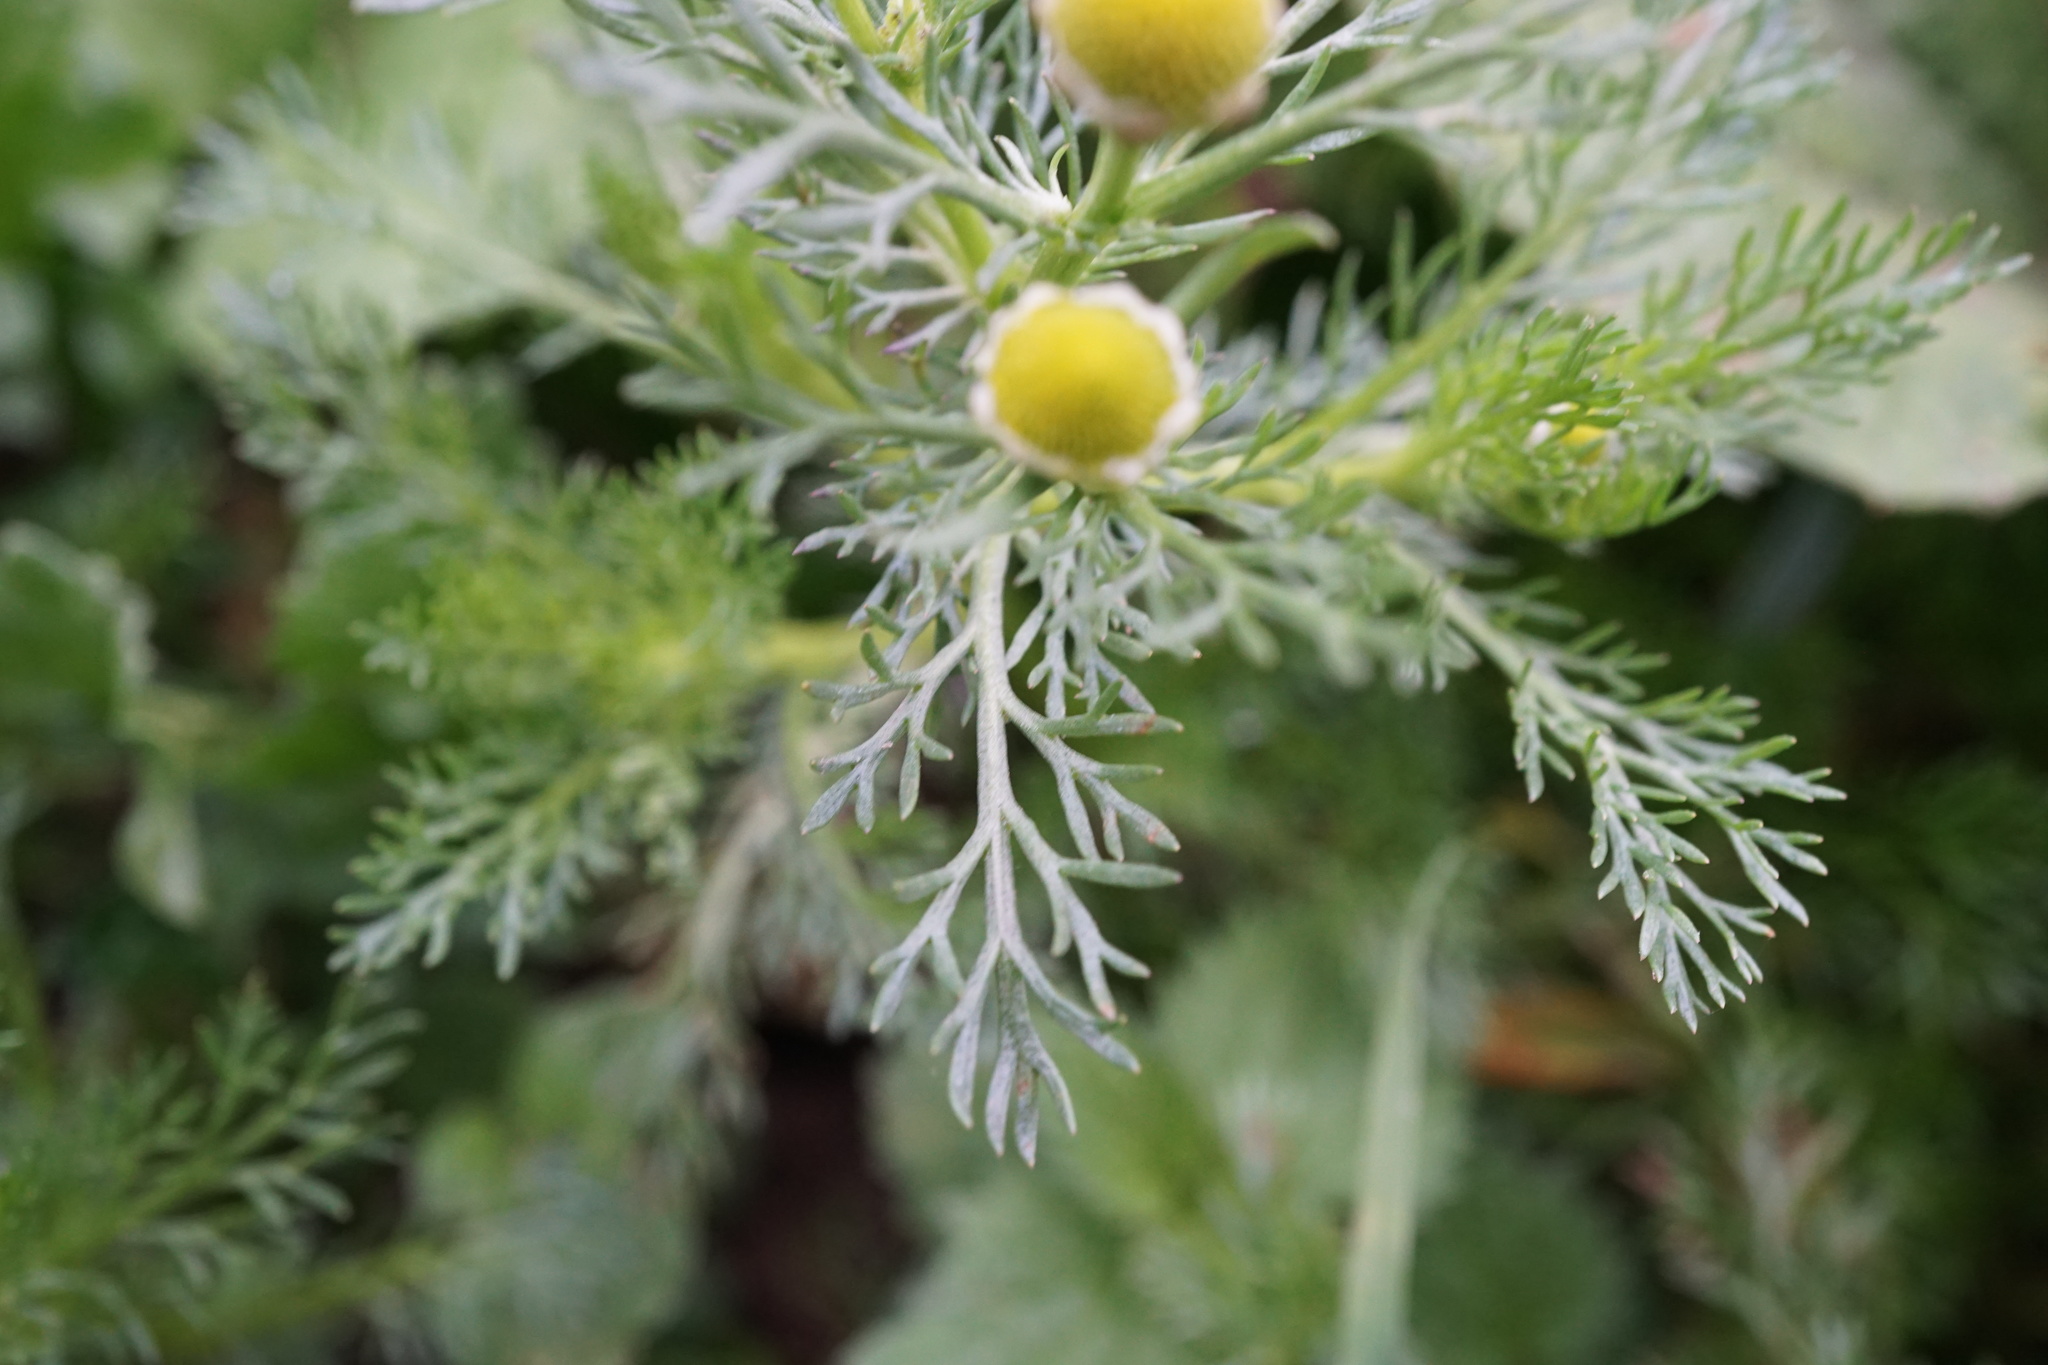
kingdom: Plantae
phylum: Tracheophyta
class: Magnoliopsida
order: Asterales
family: Asteraceae
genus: Matricaria
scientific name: Matricaria discoidea
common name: Disc mayweed
